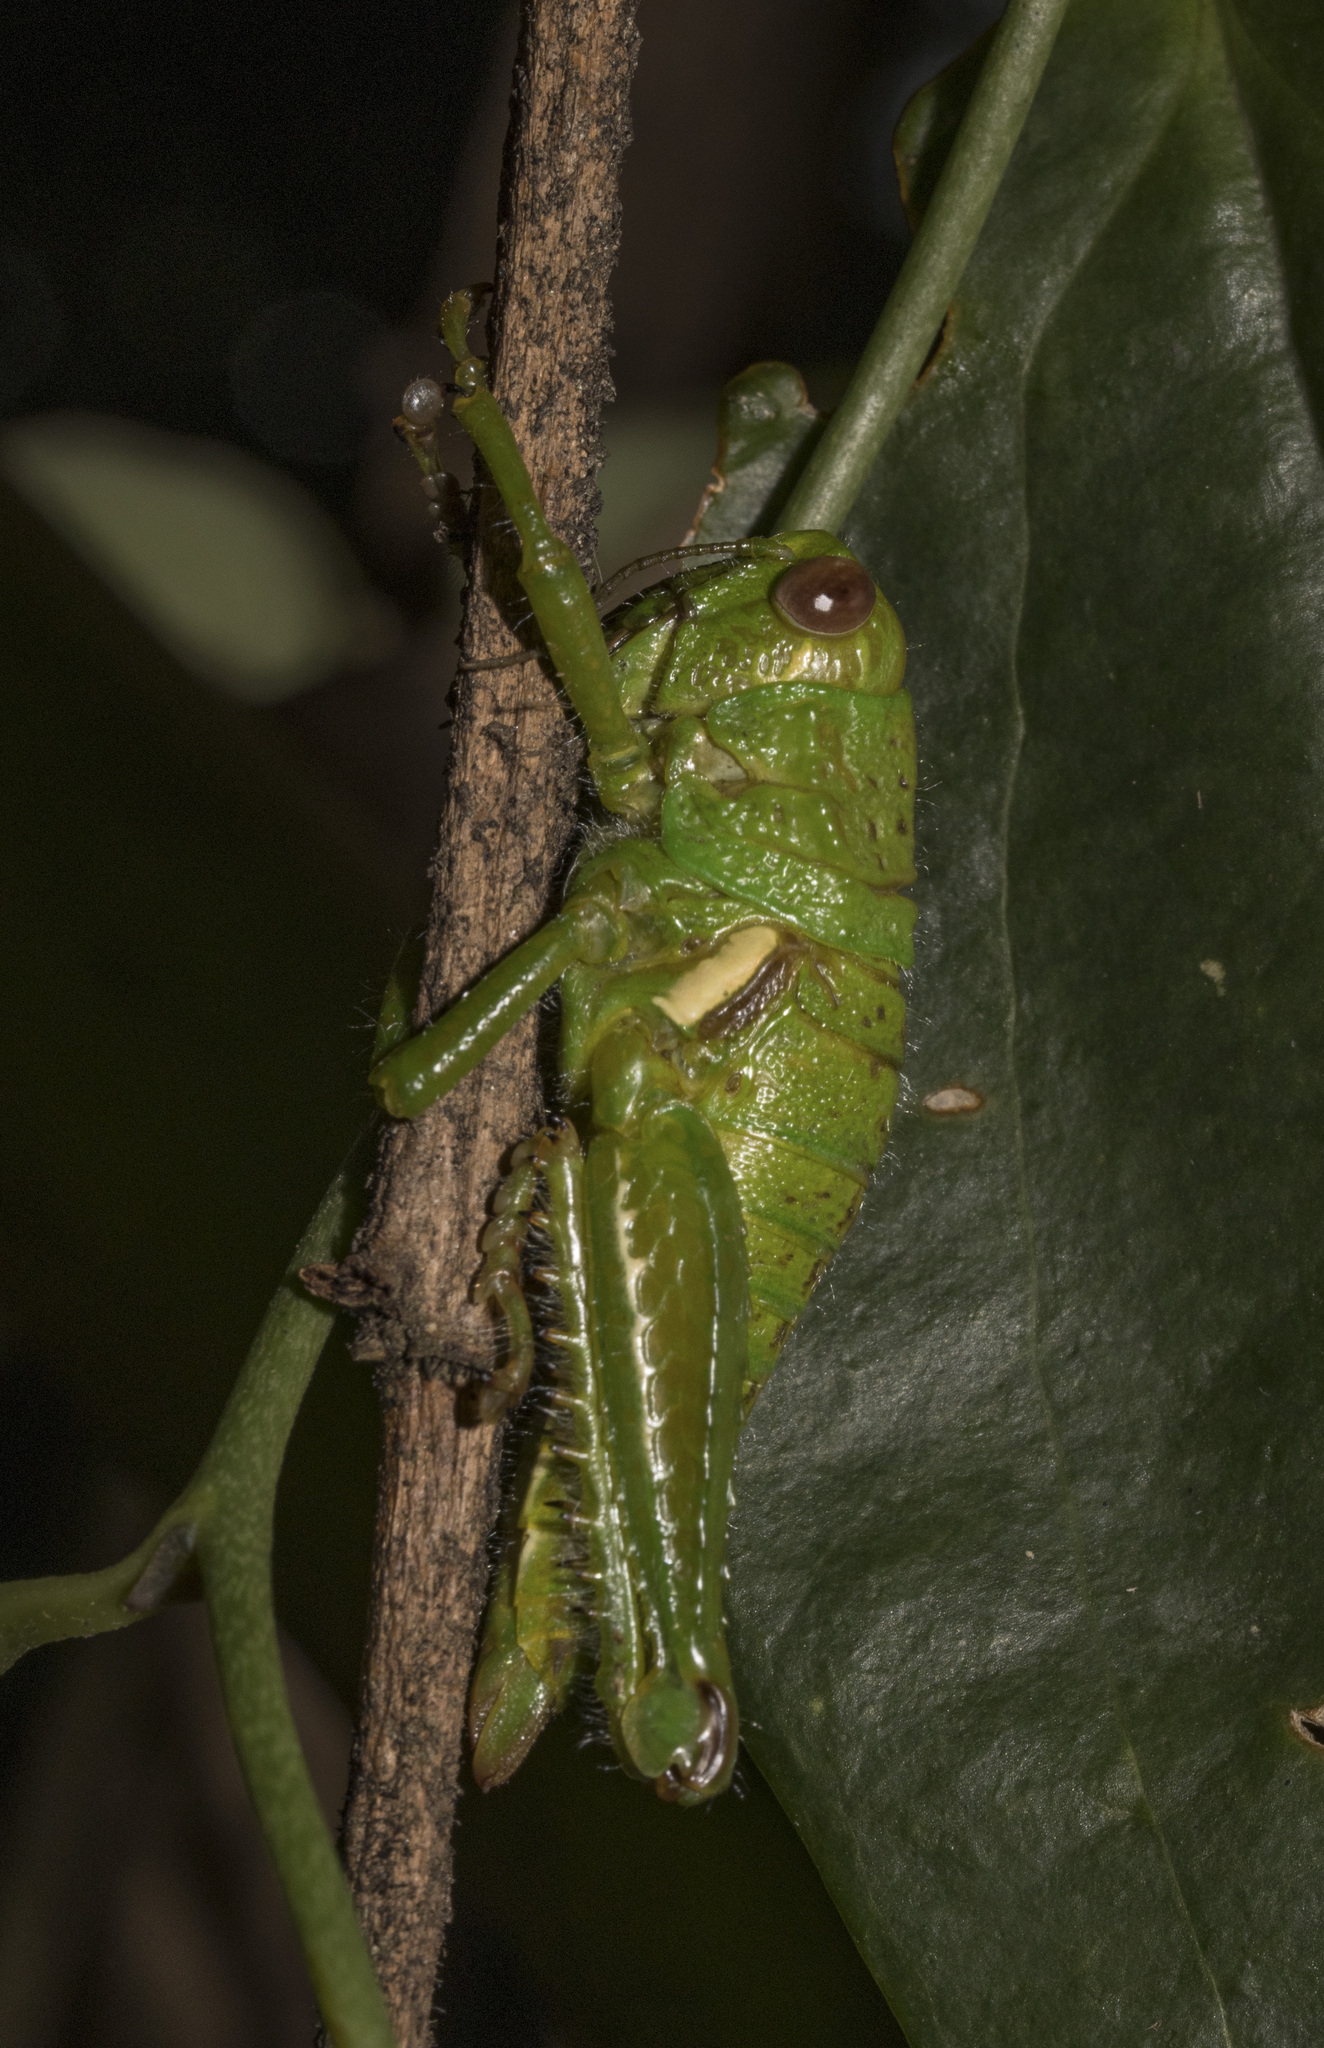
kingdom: Animalia
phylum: Arthropoda
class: Insecta
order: Orthoptera
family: Romaleidae
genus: Antandrus
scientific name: Antandrus viridis
